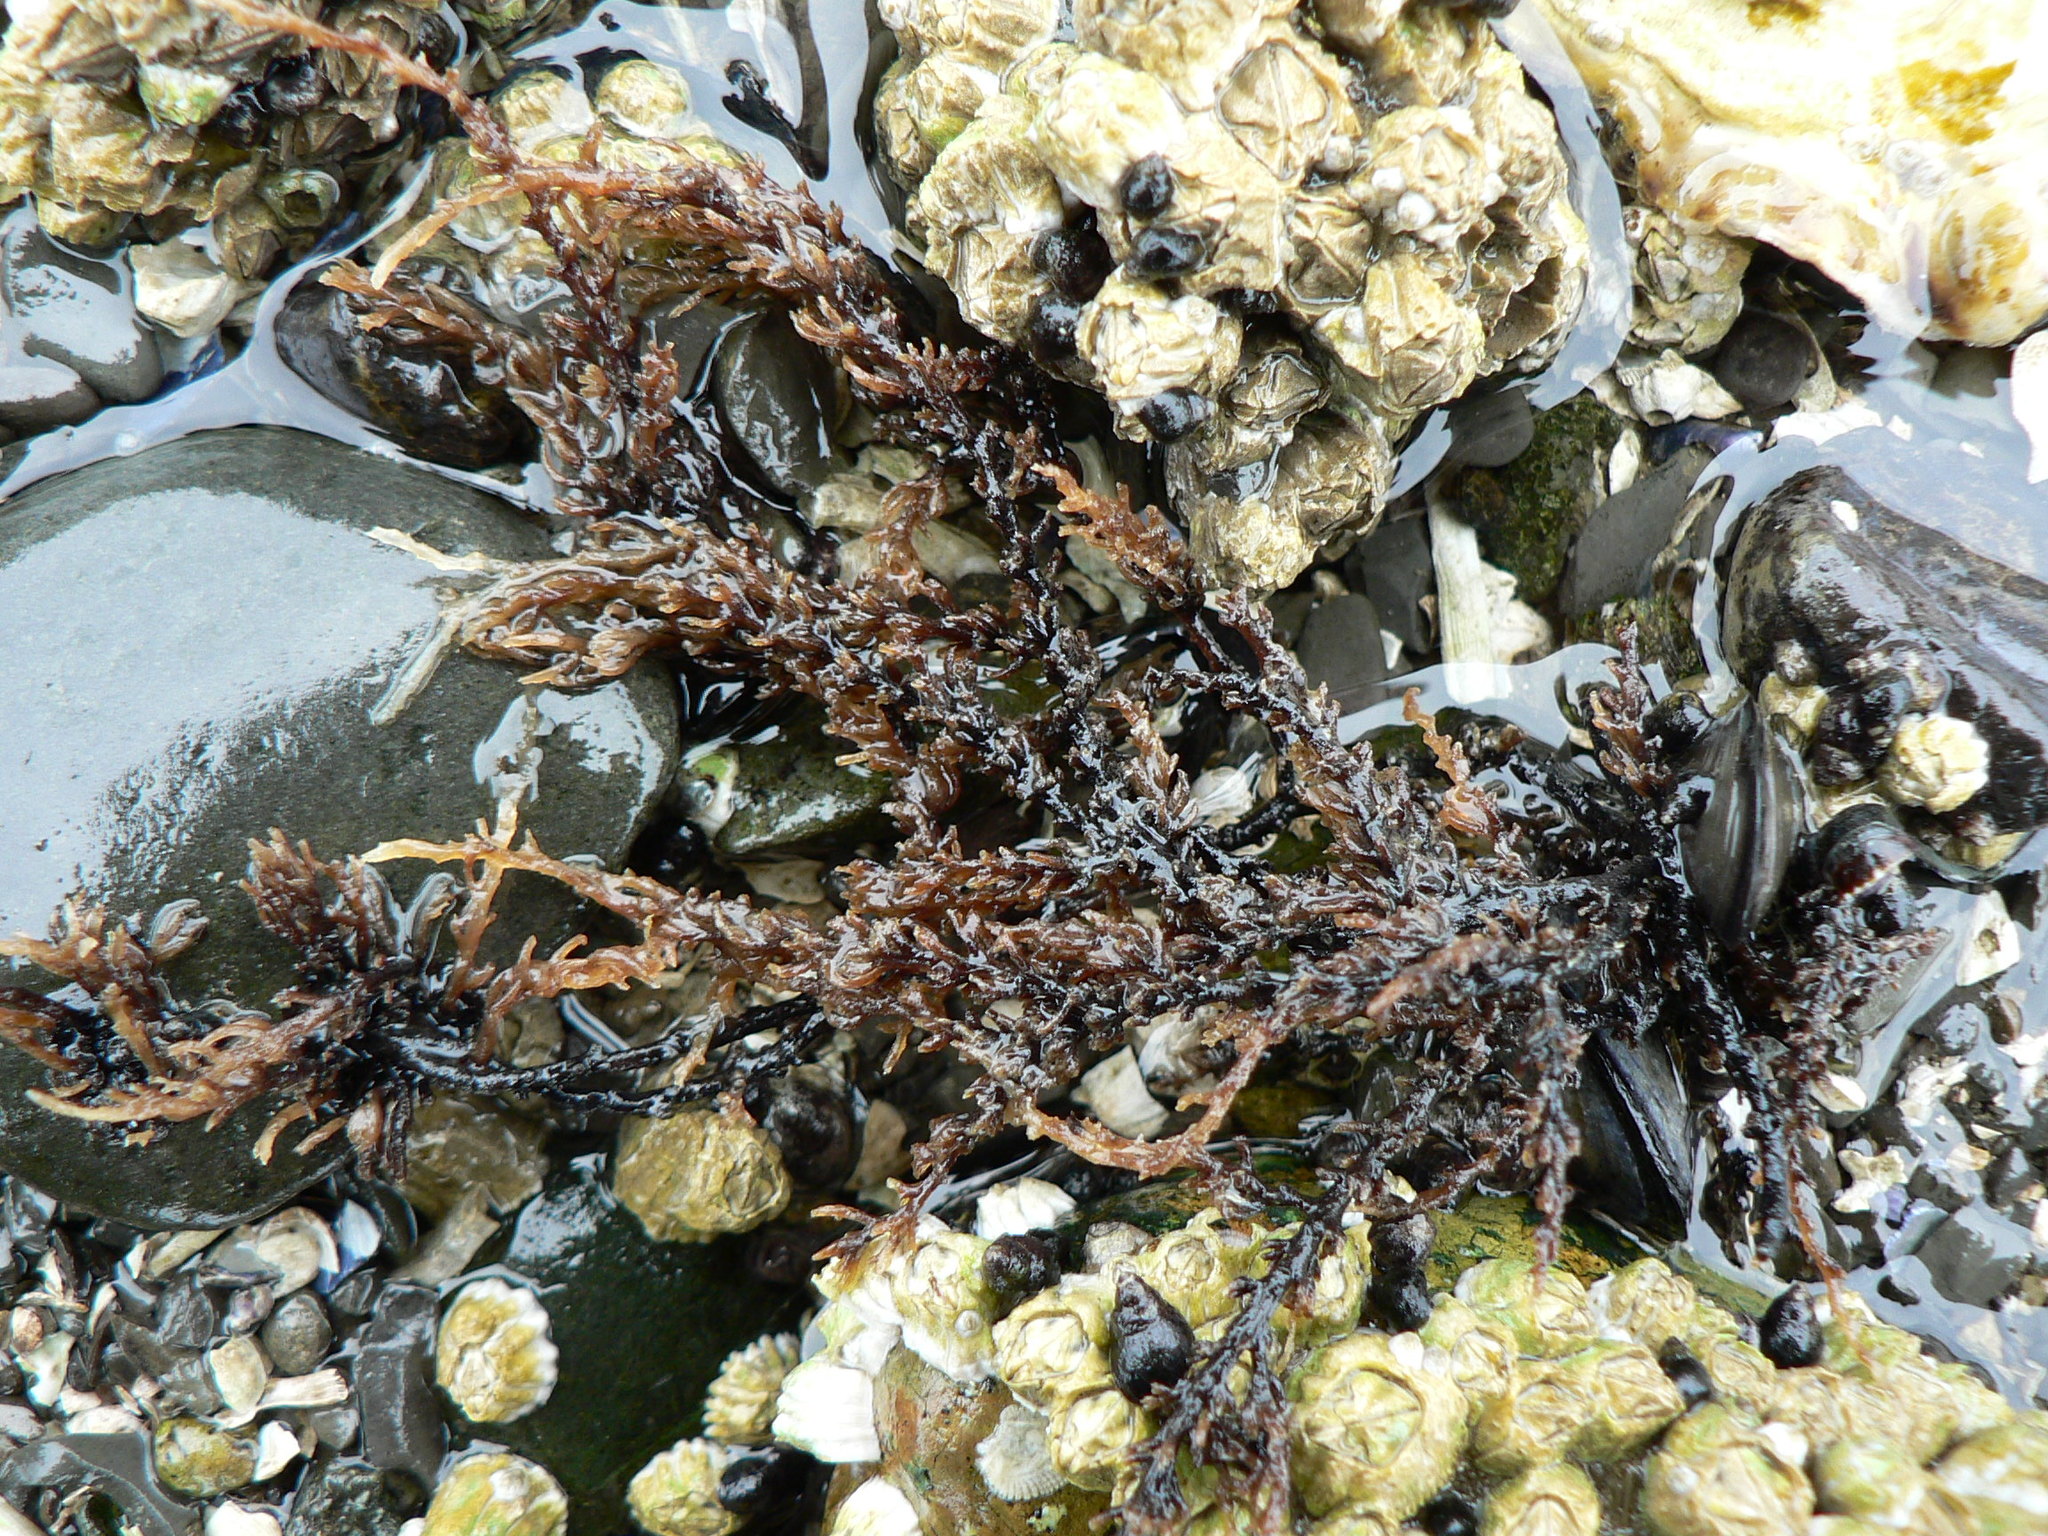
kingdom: Plantae
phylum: Rhodophyta
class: Florideophyceae
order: Ceramiales
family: Rhodomelaceae
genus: Neorhodomela
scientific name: Neorhodomela larix
